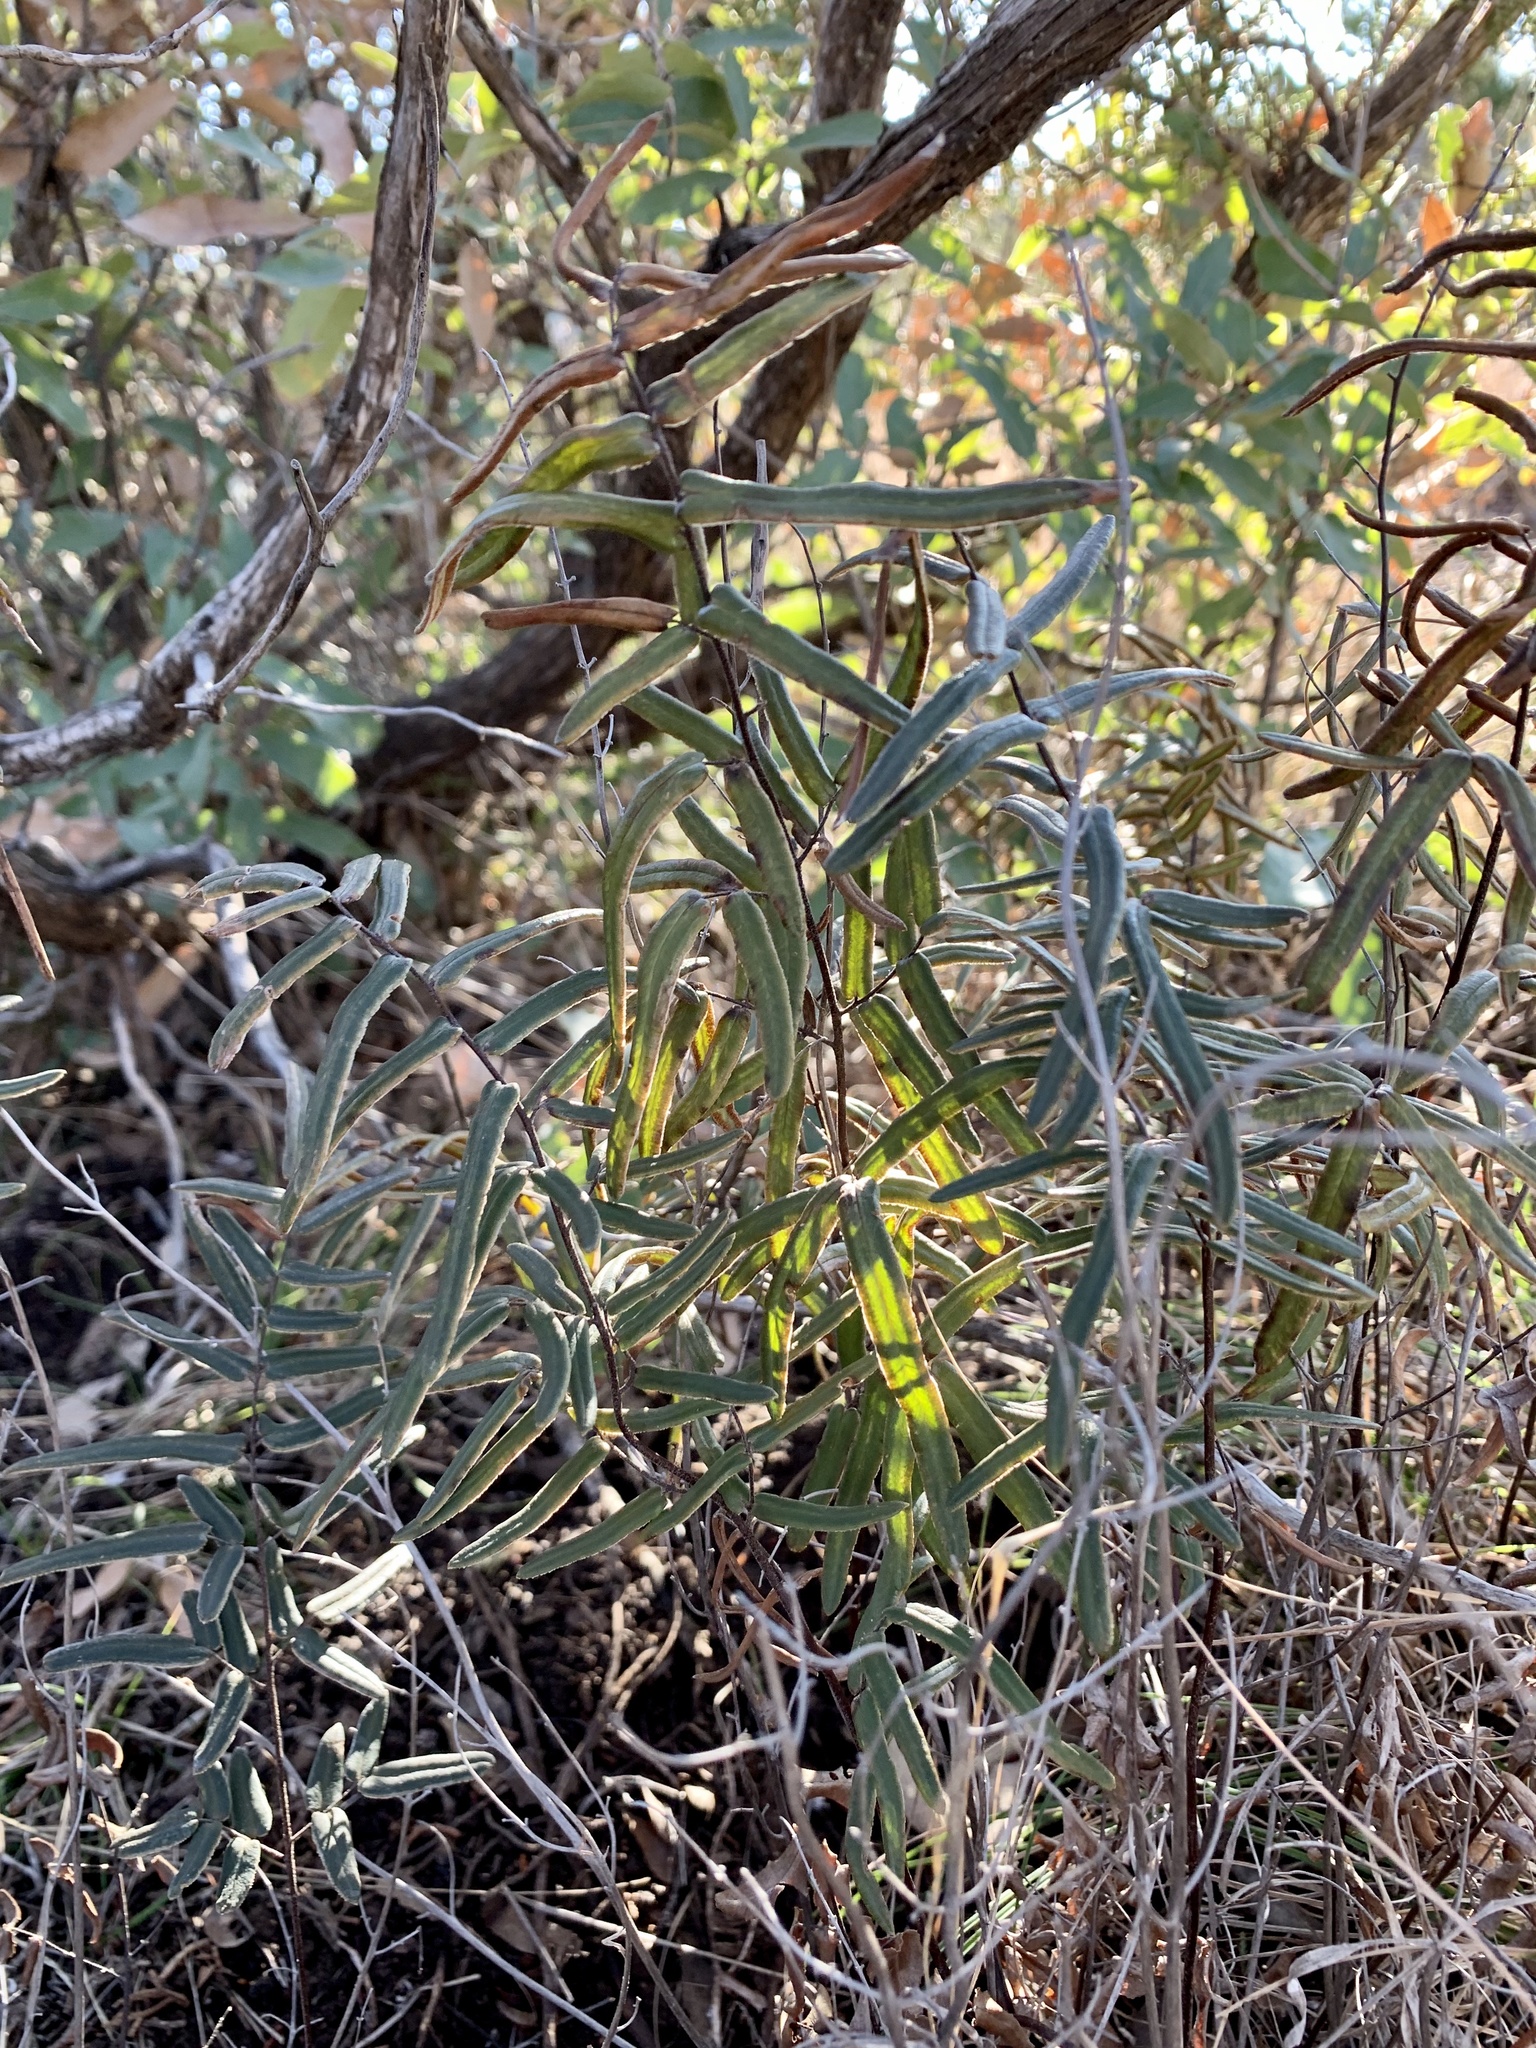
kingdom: Plantae
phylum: Tracheophyta
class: Polypodiopsida
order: Polypodiales
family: Pteridaceae
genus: Pellaea
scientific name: Pellaea atropurpurea
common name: Hairy cliffbrake
